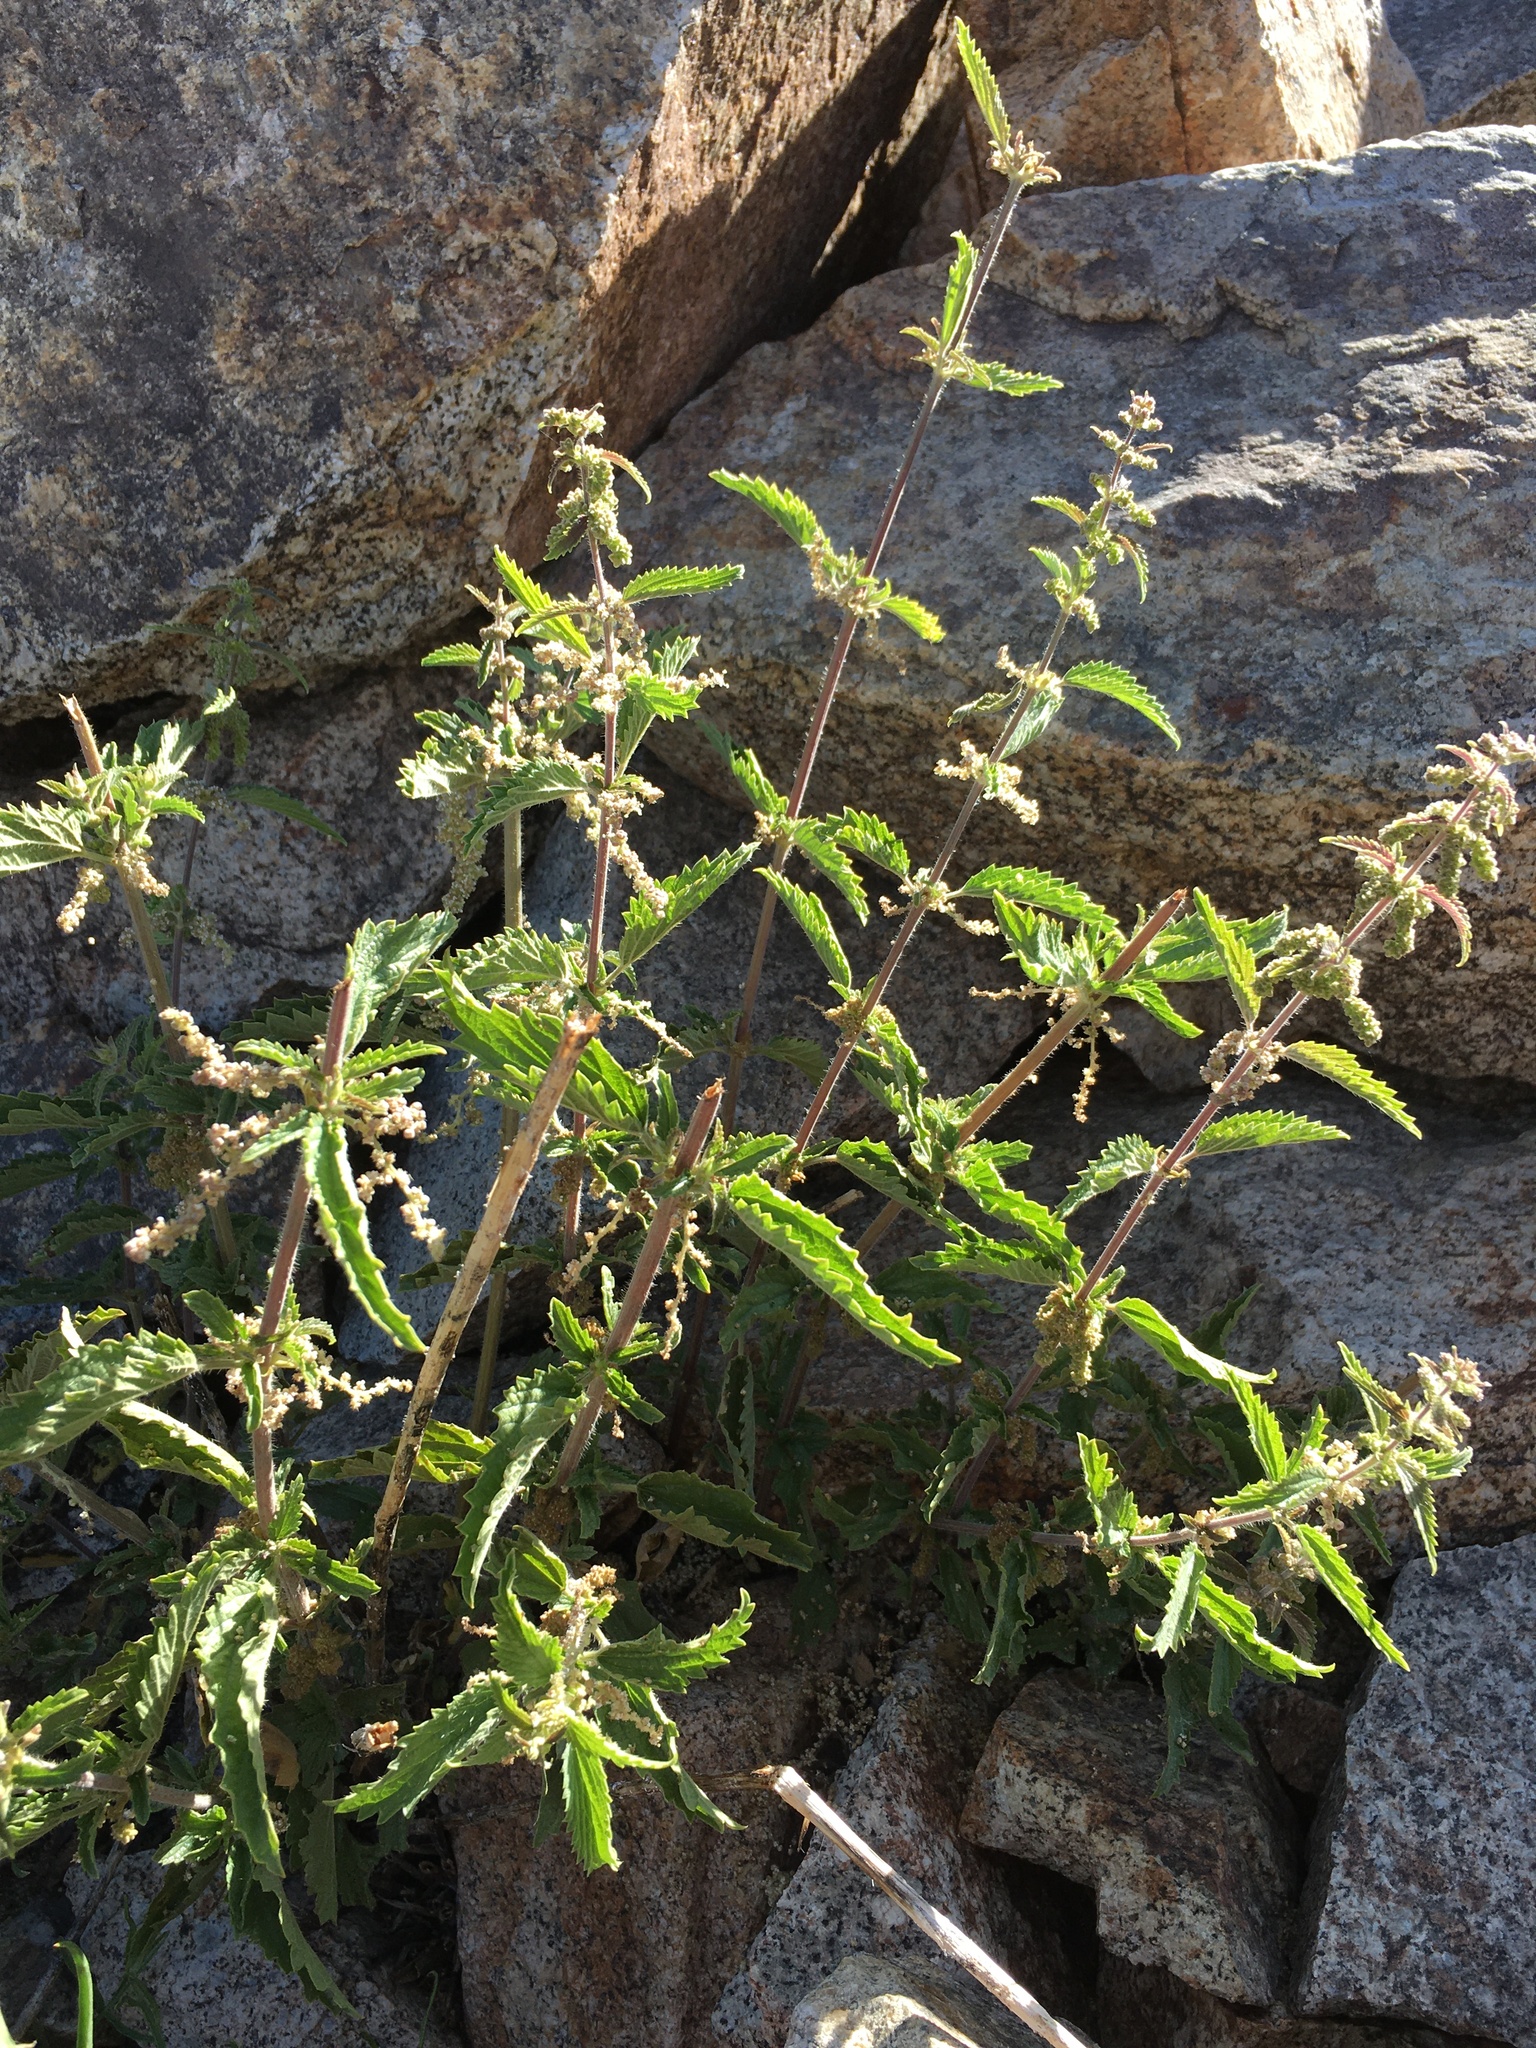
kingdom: Plantae
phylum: Tracheophyta
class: Magnoliopsida
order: Rosales
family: Urticaceae
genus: Urtica
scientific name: Urtica gracilis
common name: Slender stinging nettle
